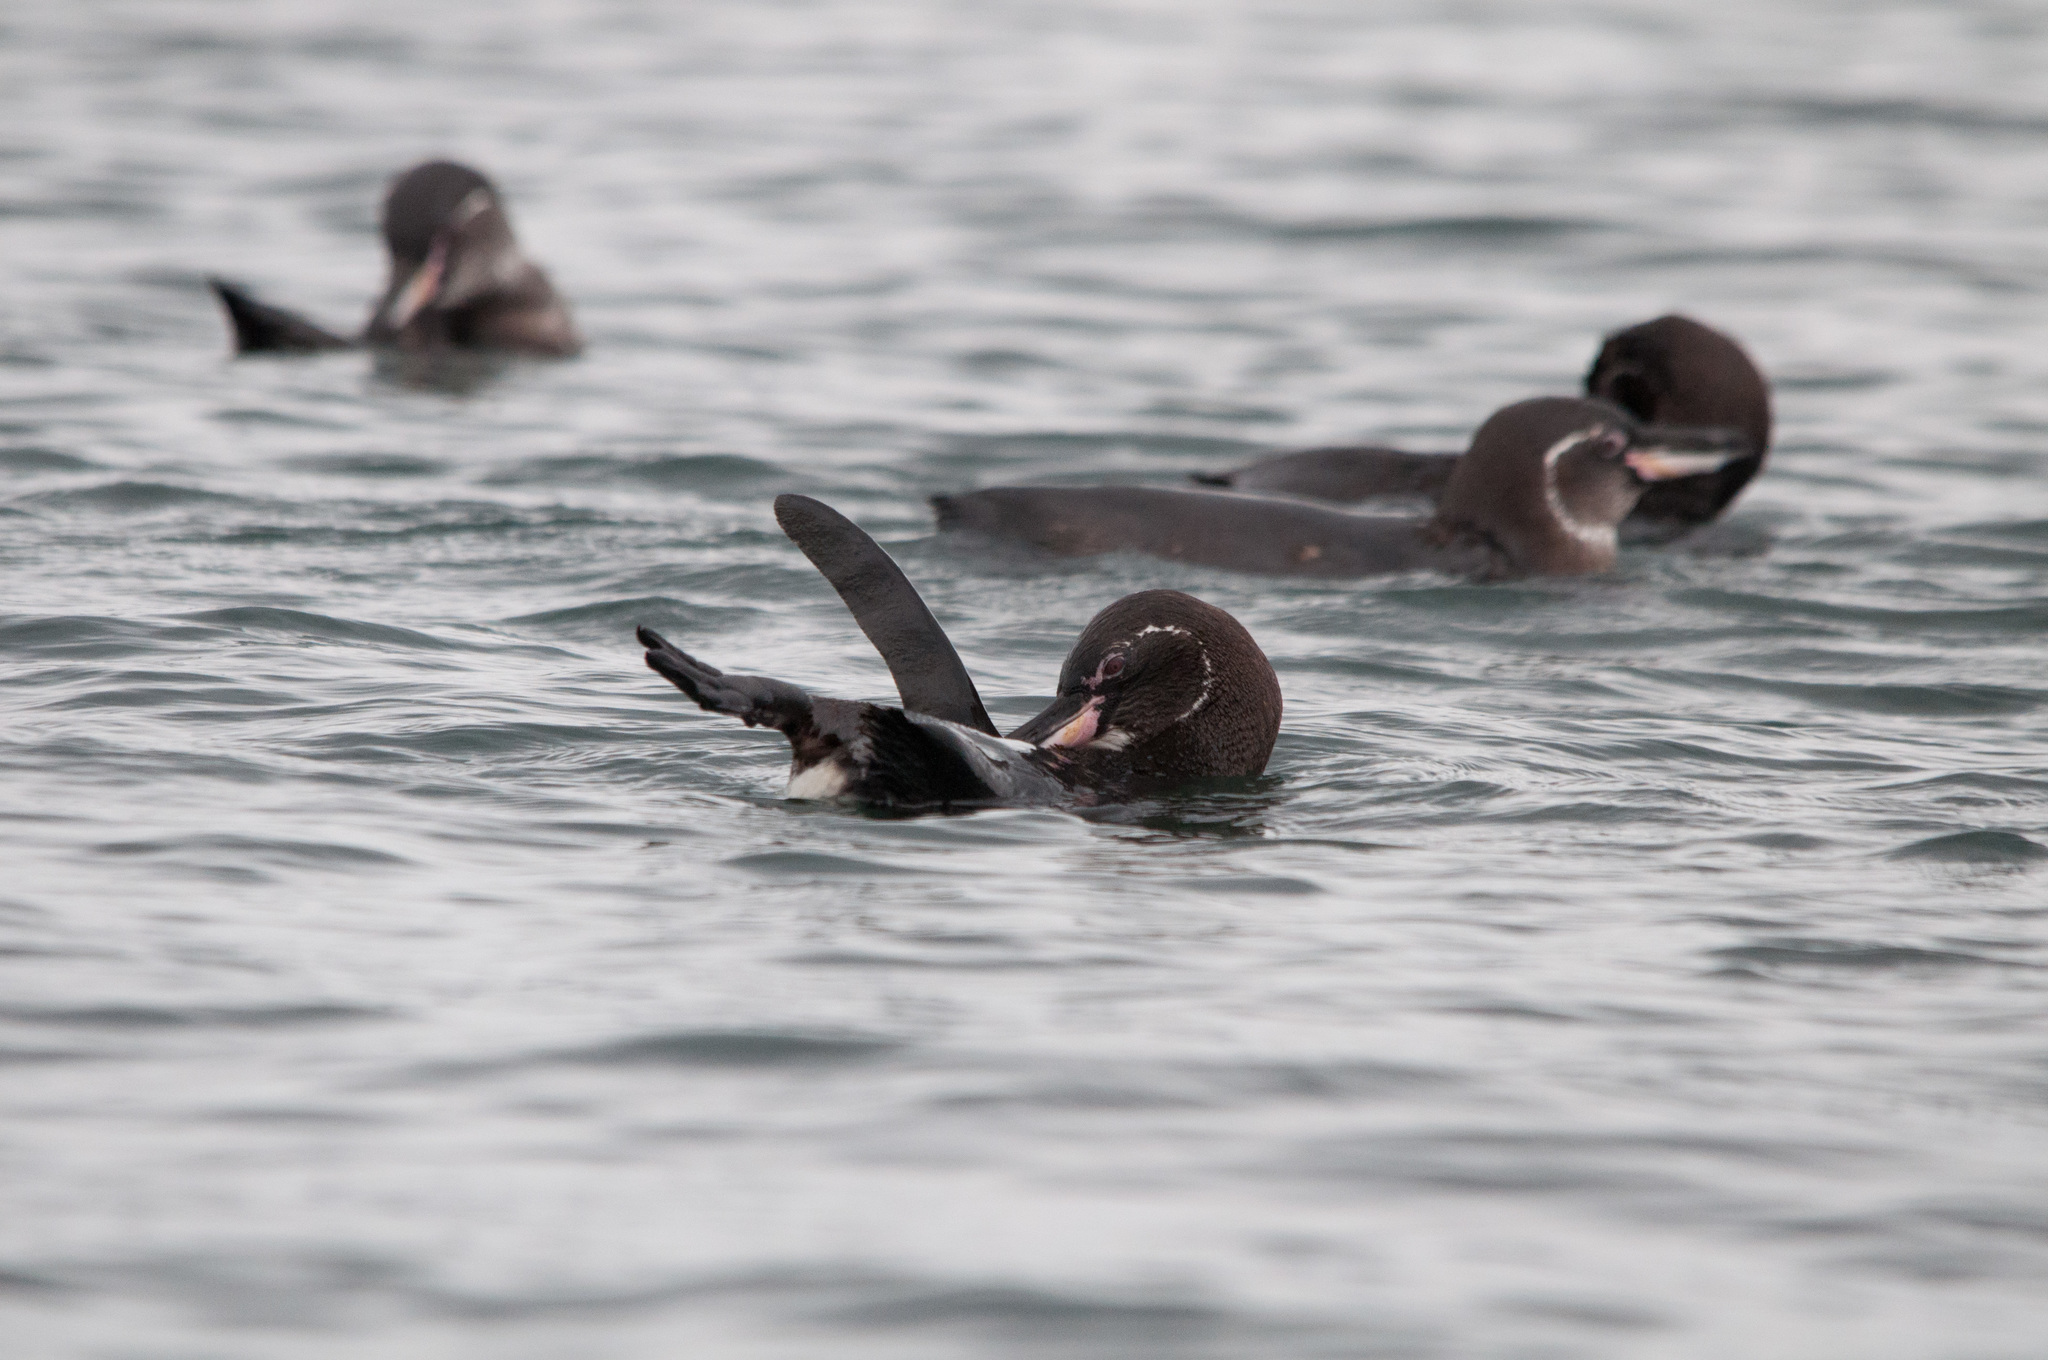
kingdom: Animalia
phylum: Chordata
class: Aves
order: Sphenisciformes
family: Spheniscidae
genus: Spheniscus
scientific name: Spheniscus mendiculus
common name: Galapagos penguin
